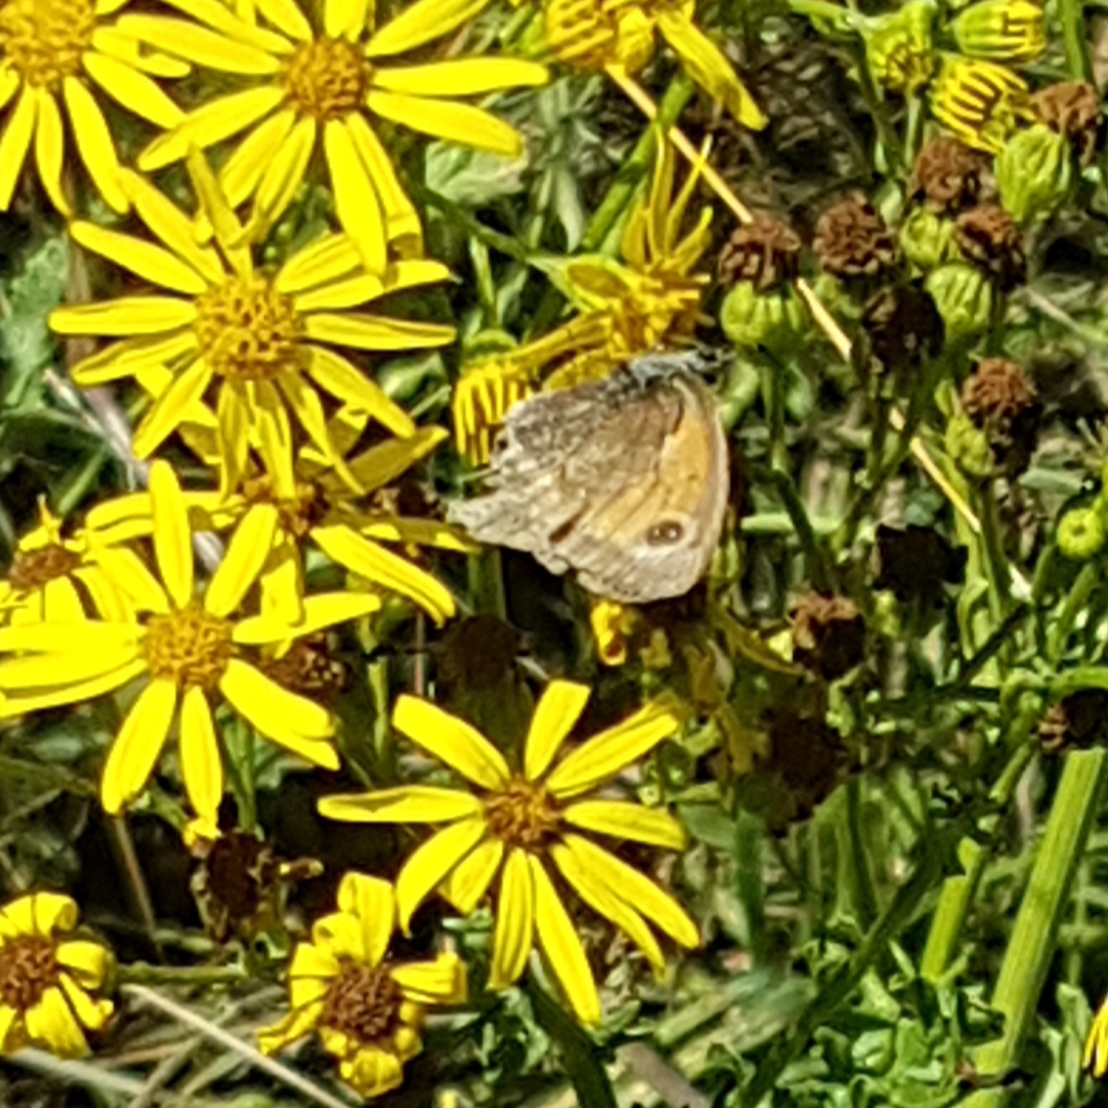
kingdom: Animalia
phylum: Arthropoda
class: Insecta
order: Lepidoptera
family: Nymphalidae
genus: Pyronia
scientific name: Pyronia tithonus
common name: Gatekeeper
